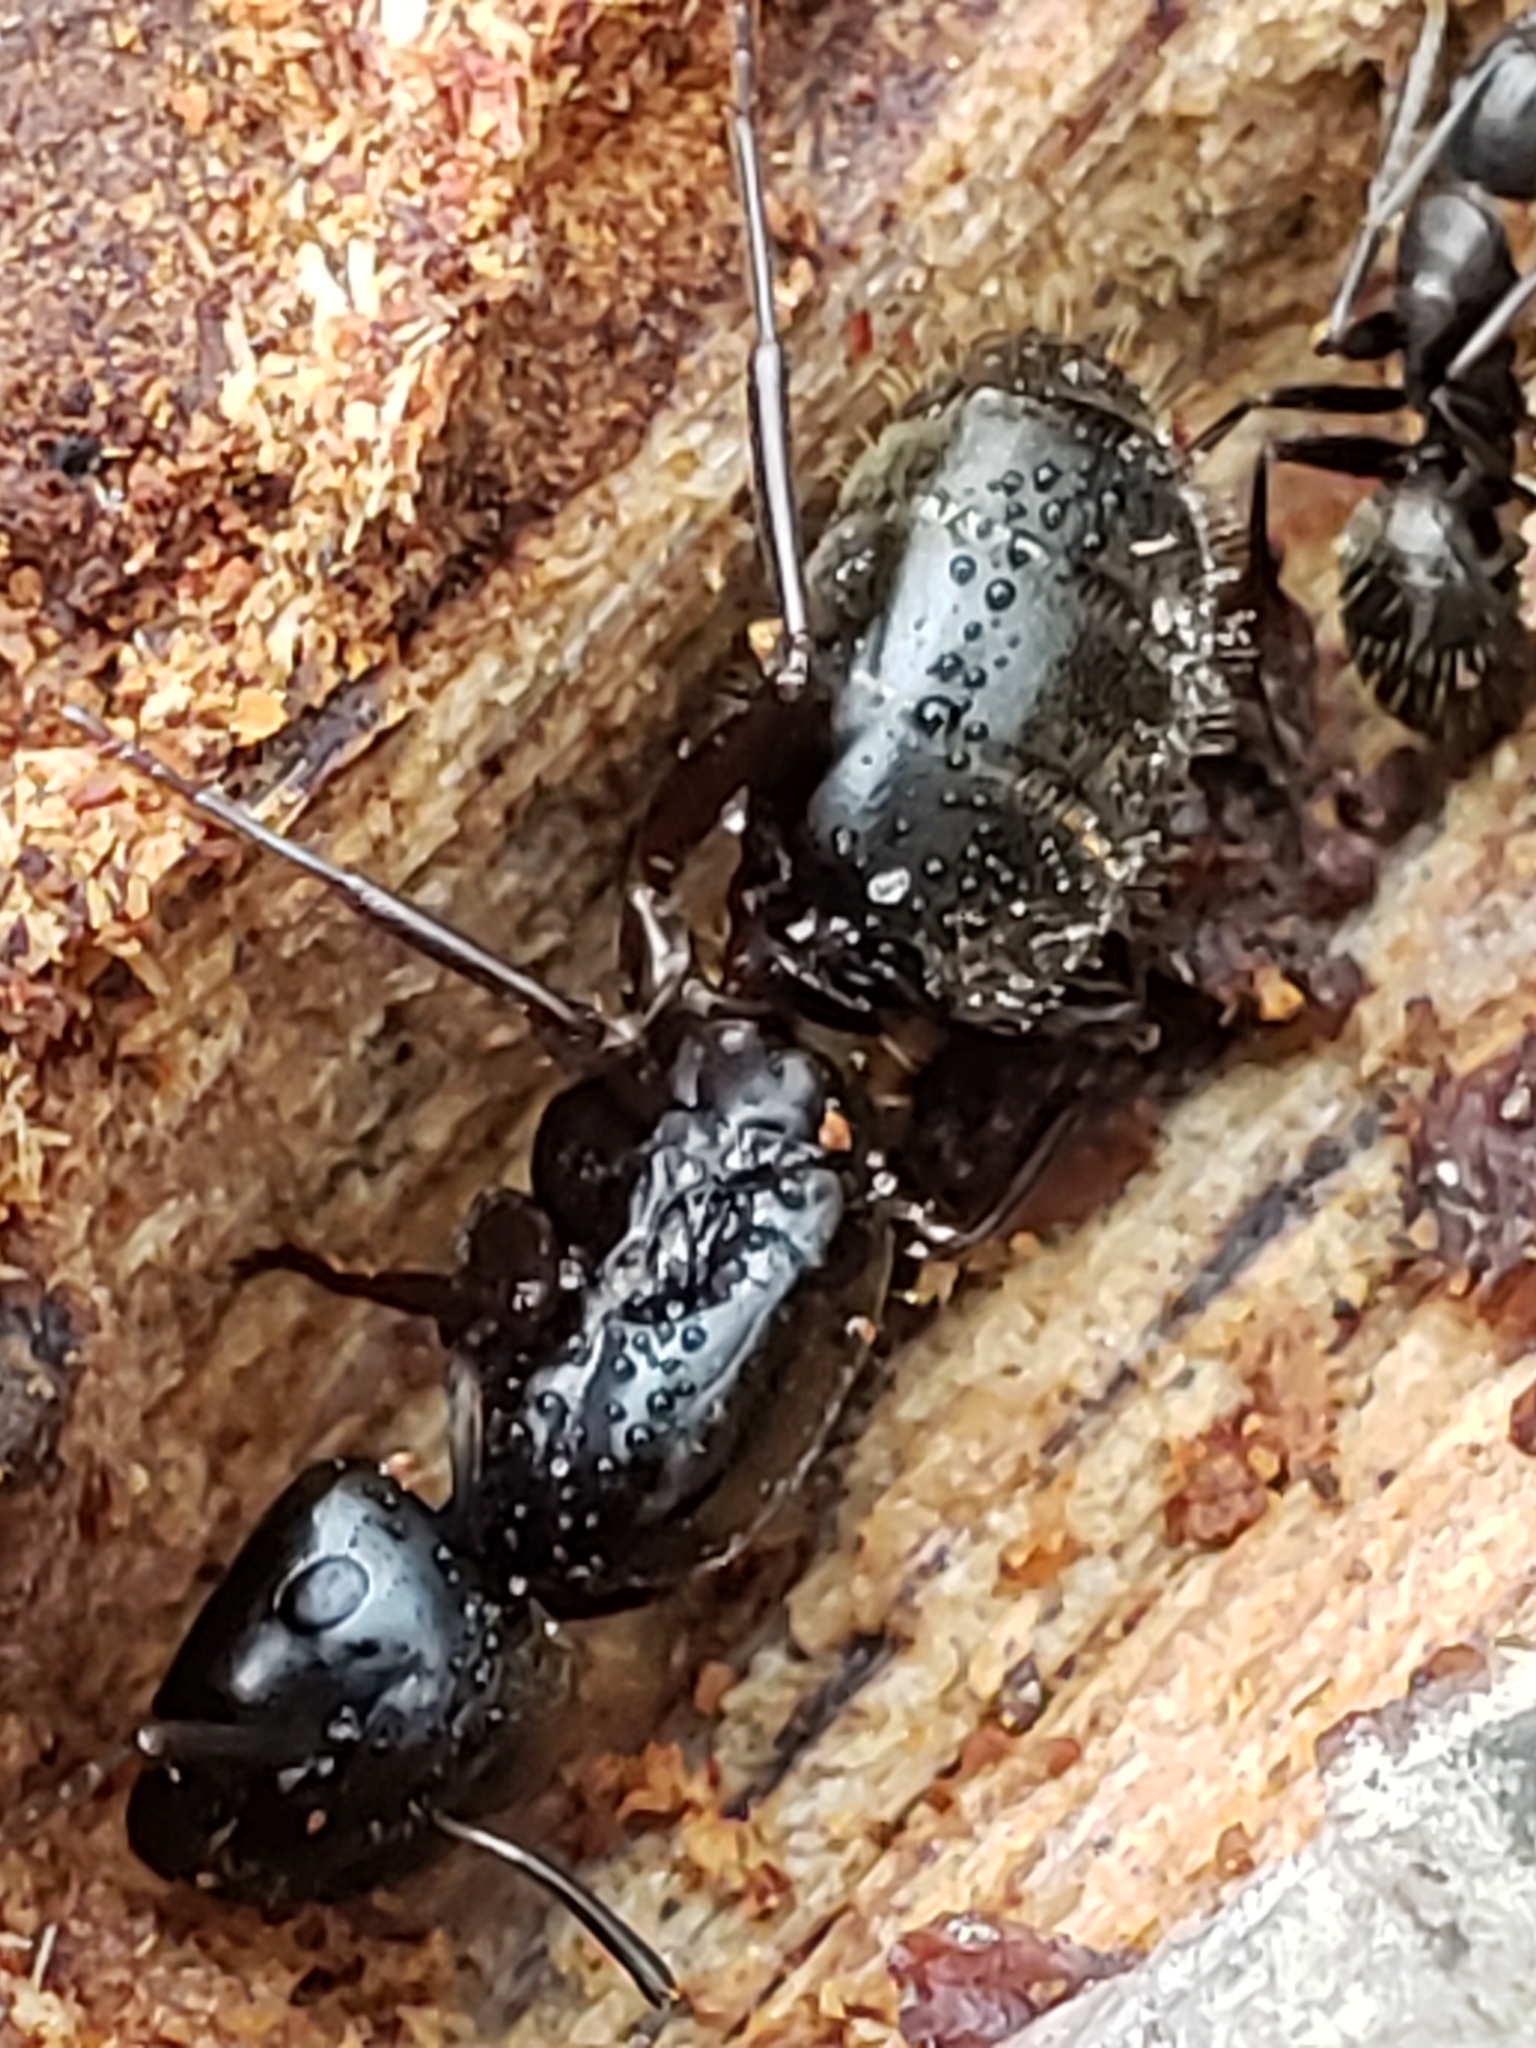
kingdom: Animalia
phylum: Arthropoda
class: Insecta
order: Hymenoptera
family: Formicidae
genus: Camponotus
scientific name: Camponotus pennsylvanicus
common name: Black carpenter ant
